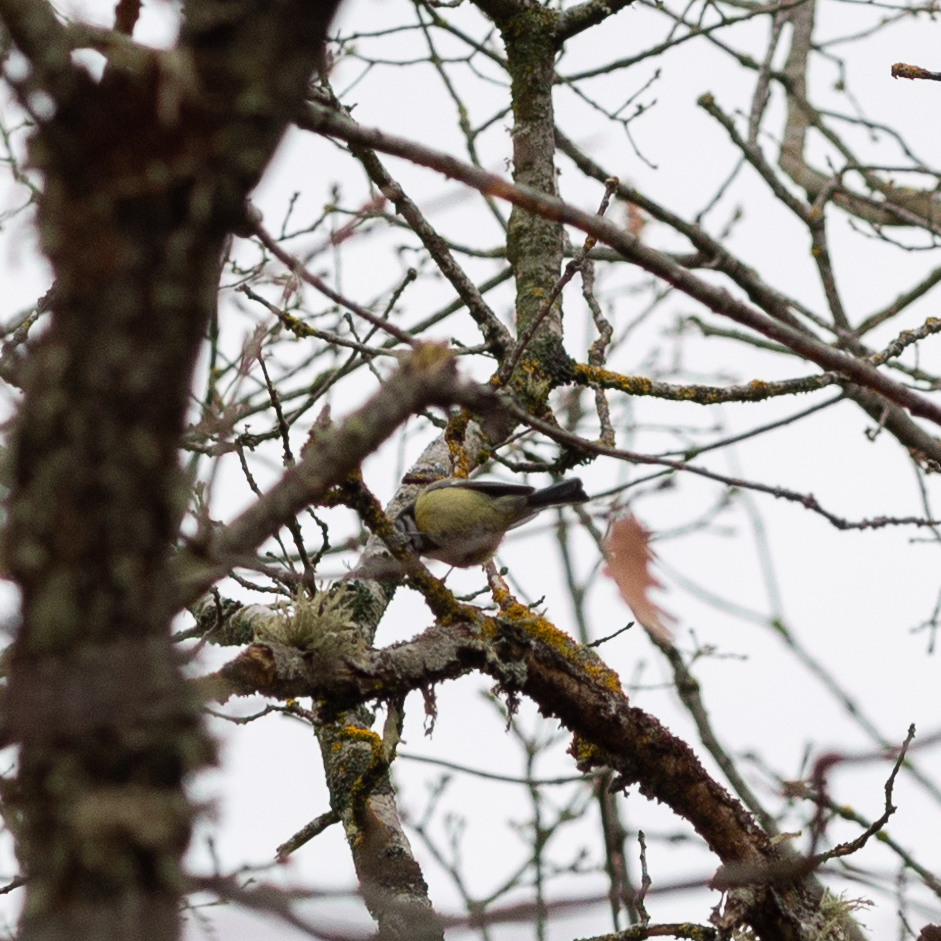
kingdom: Animalia
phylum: Chordata
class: Aves
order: Passeriformes
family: Paridae
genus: Cyanistes
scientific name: Cyanistes caeruleus
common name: Eurasian blue tit
